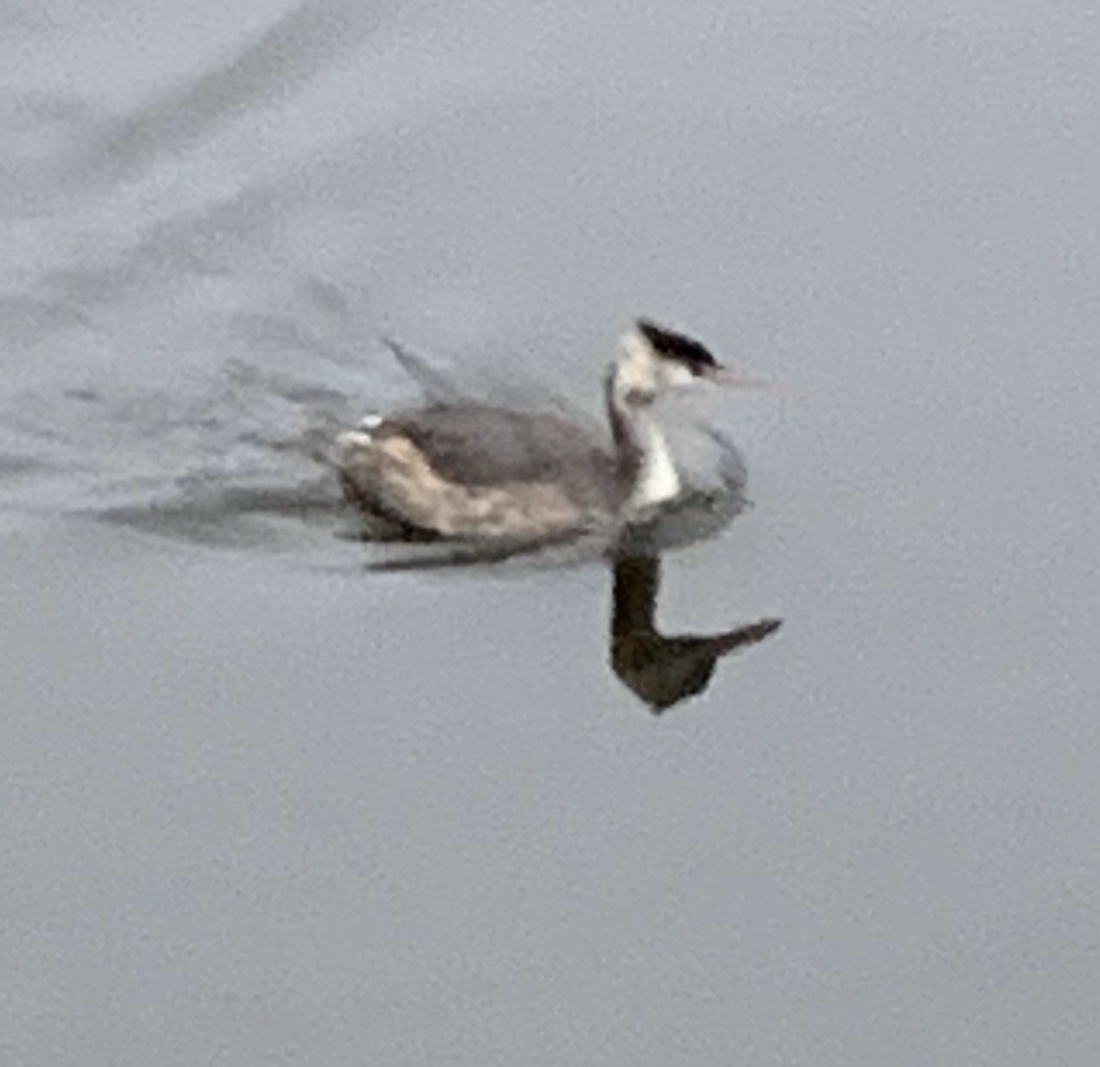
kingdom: Animalia
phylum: Chordata
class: Aves
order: Podicipediformes
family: Podicipedidae
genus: Podiceps
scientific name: Podiceps cristatus
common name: Great crested grebe
